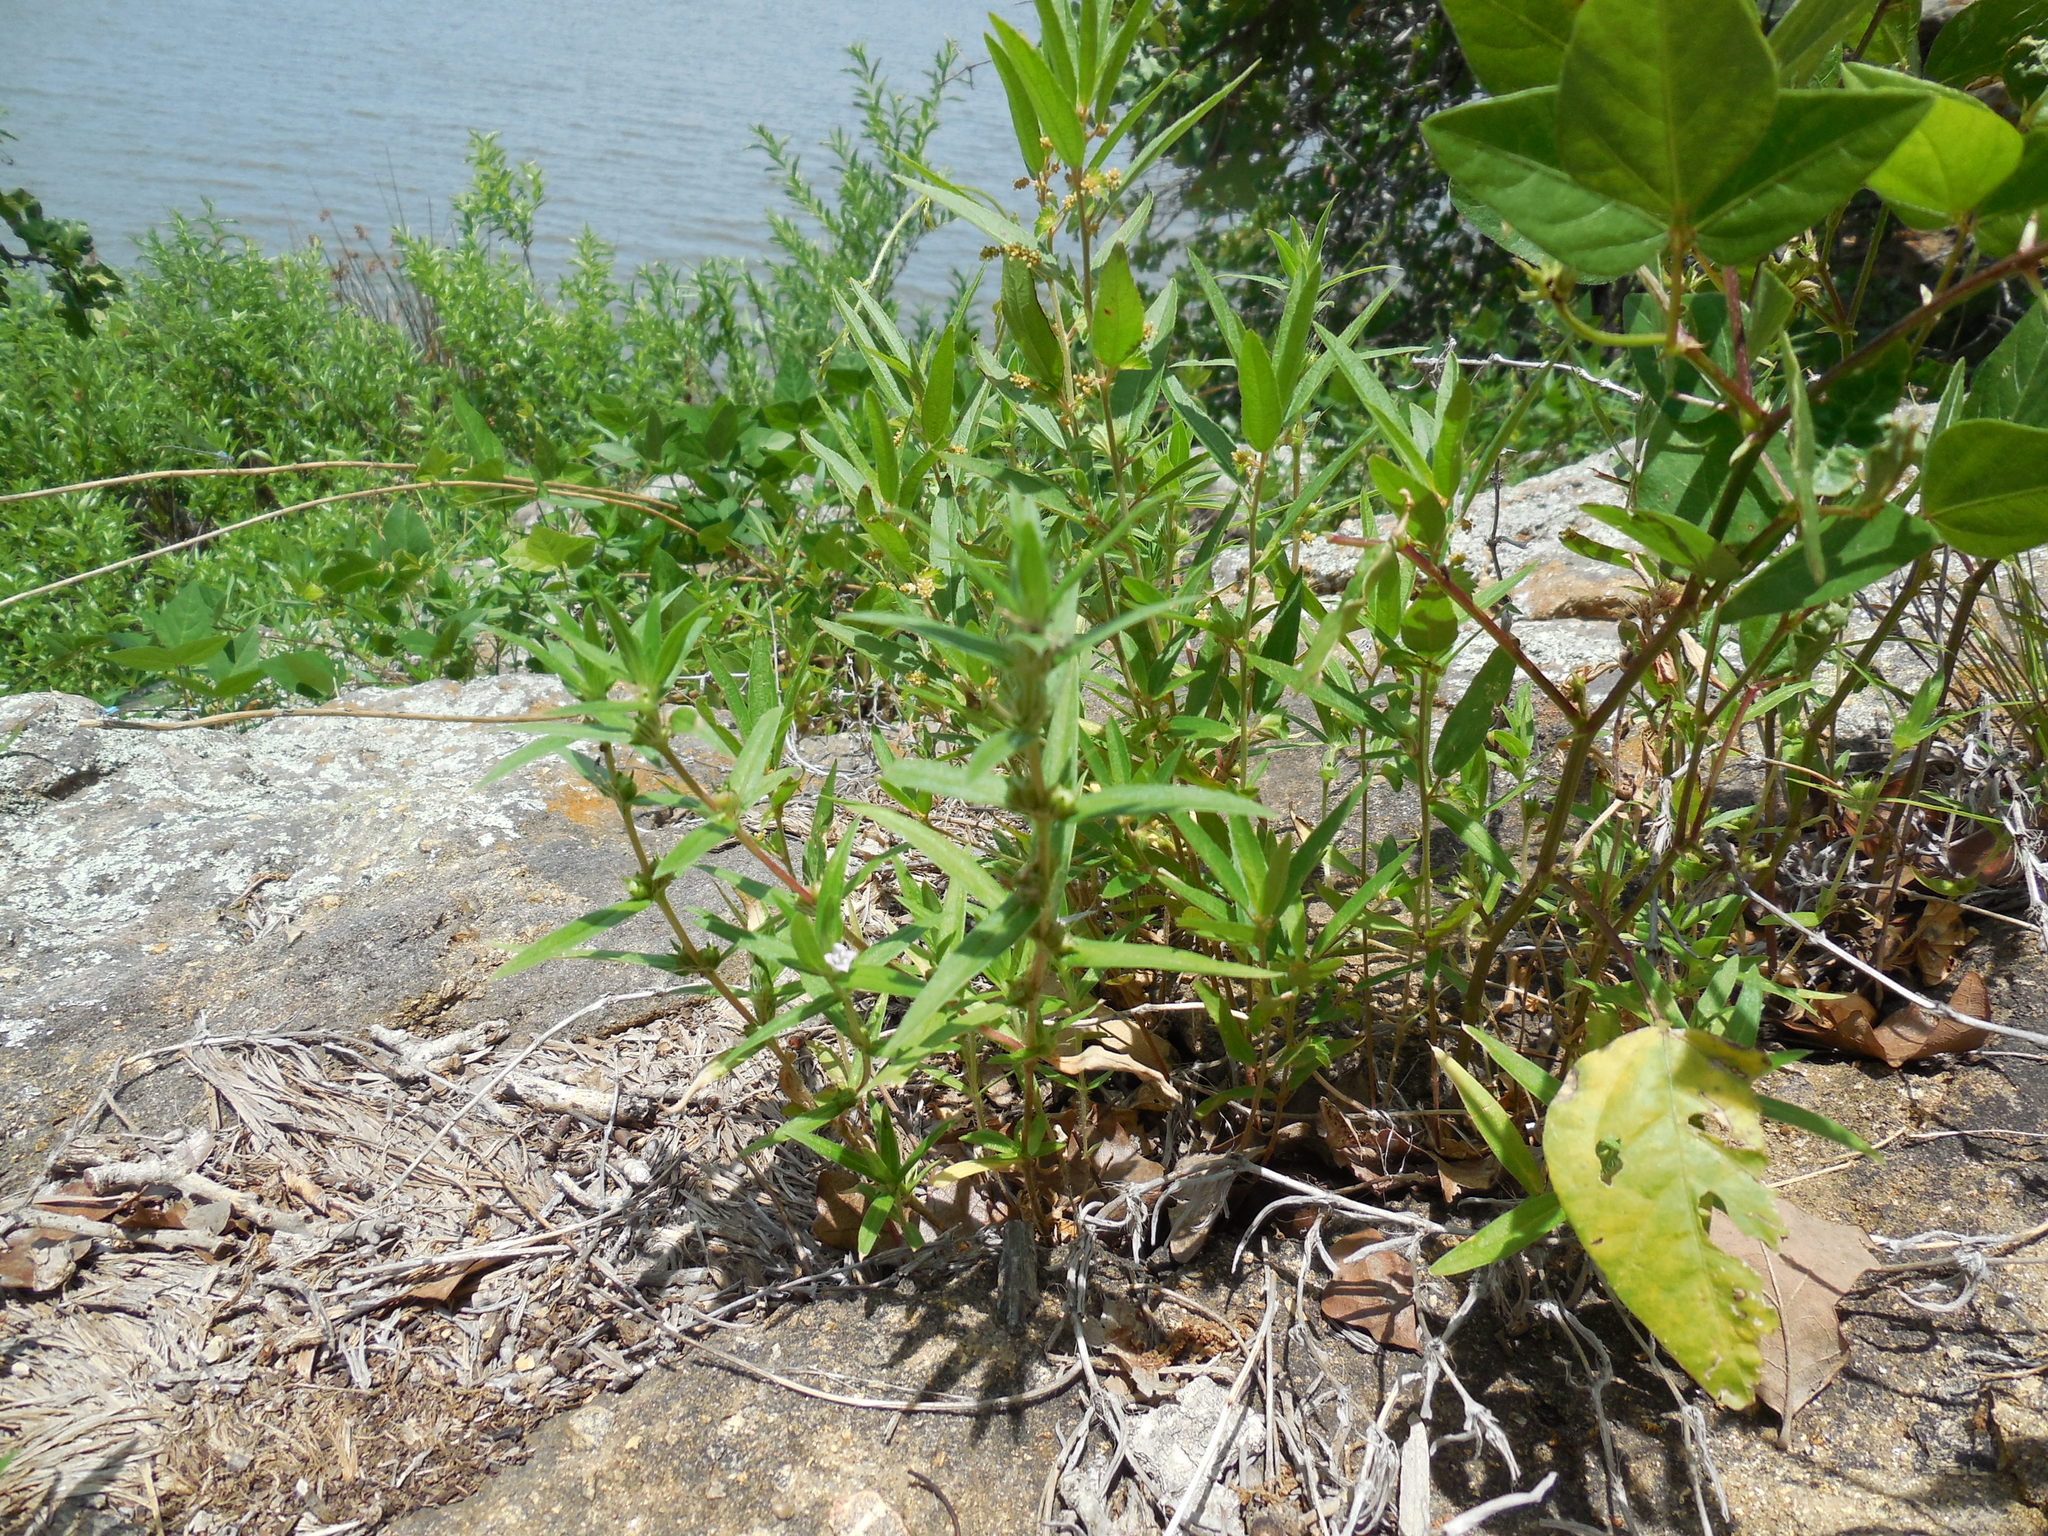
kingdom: Plantae
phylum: Tracheophyta
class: Magnoliopsida
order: Gentianales
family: Rubiaceae
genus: Hexasepalum
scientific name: Hexasepalum teres
